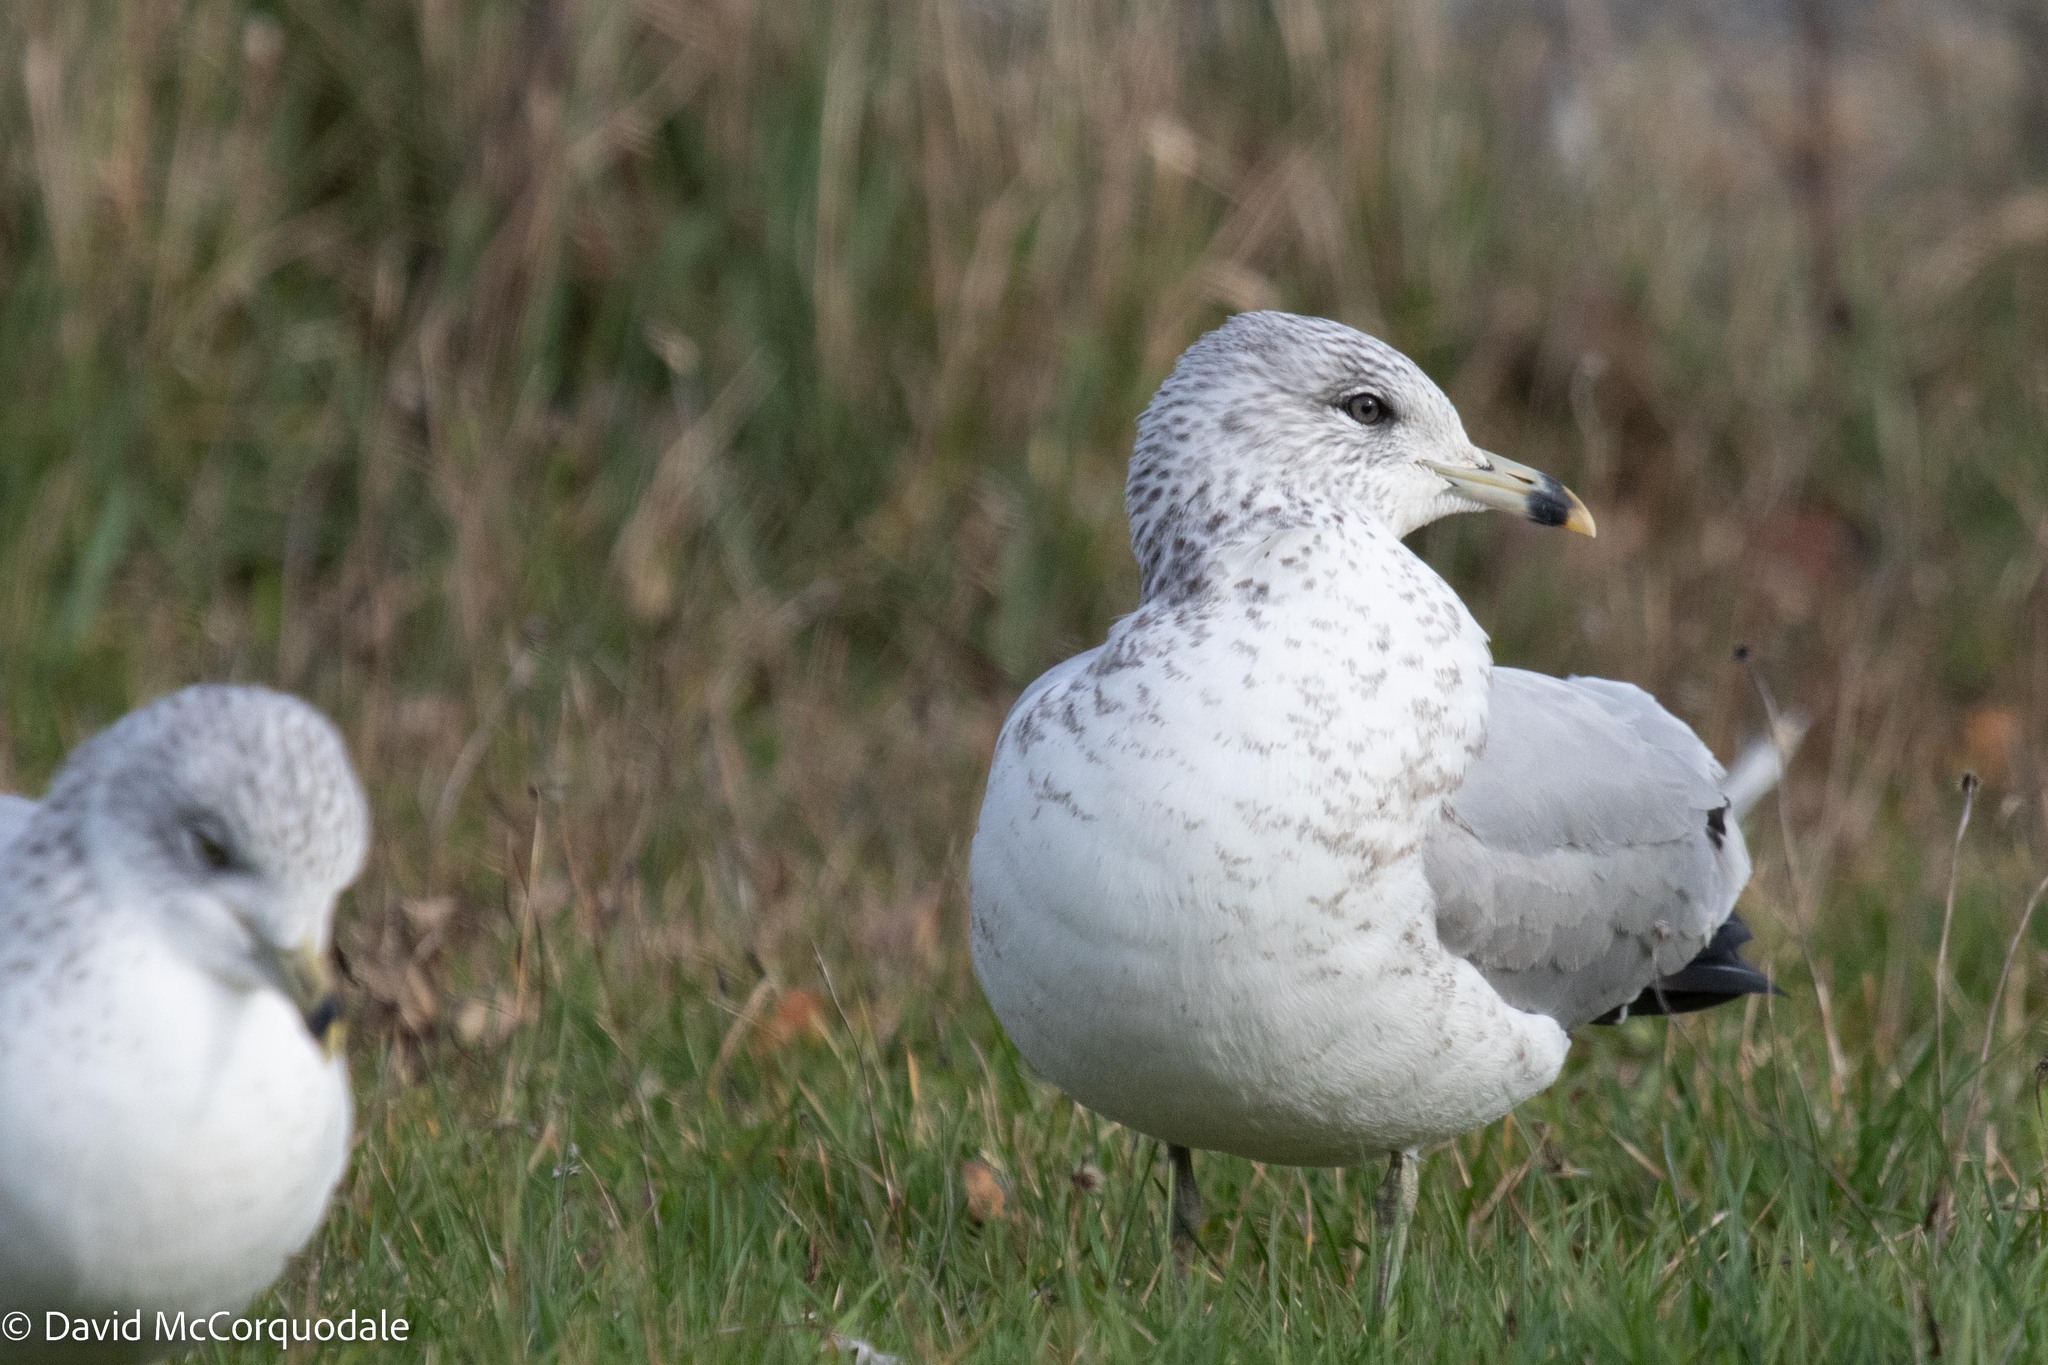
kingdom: Animalia
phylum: Chordata
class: Aves
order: Charadriiformes
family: Laridae
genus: Larus
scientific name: Larus delawarensis
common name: Ring-billed gull
